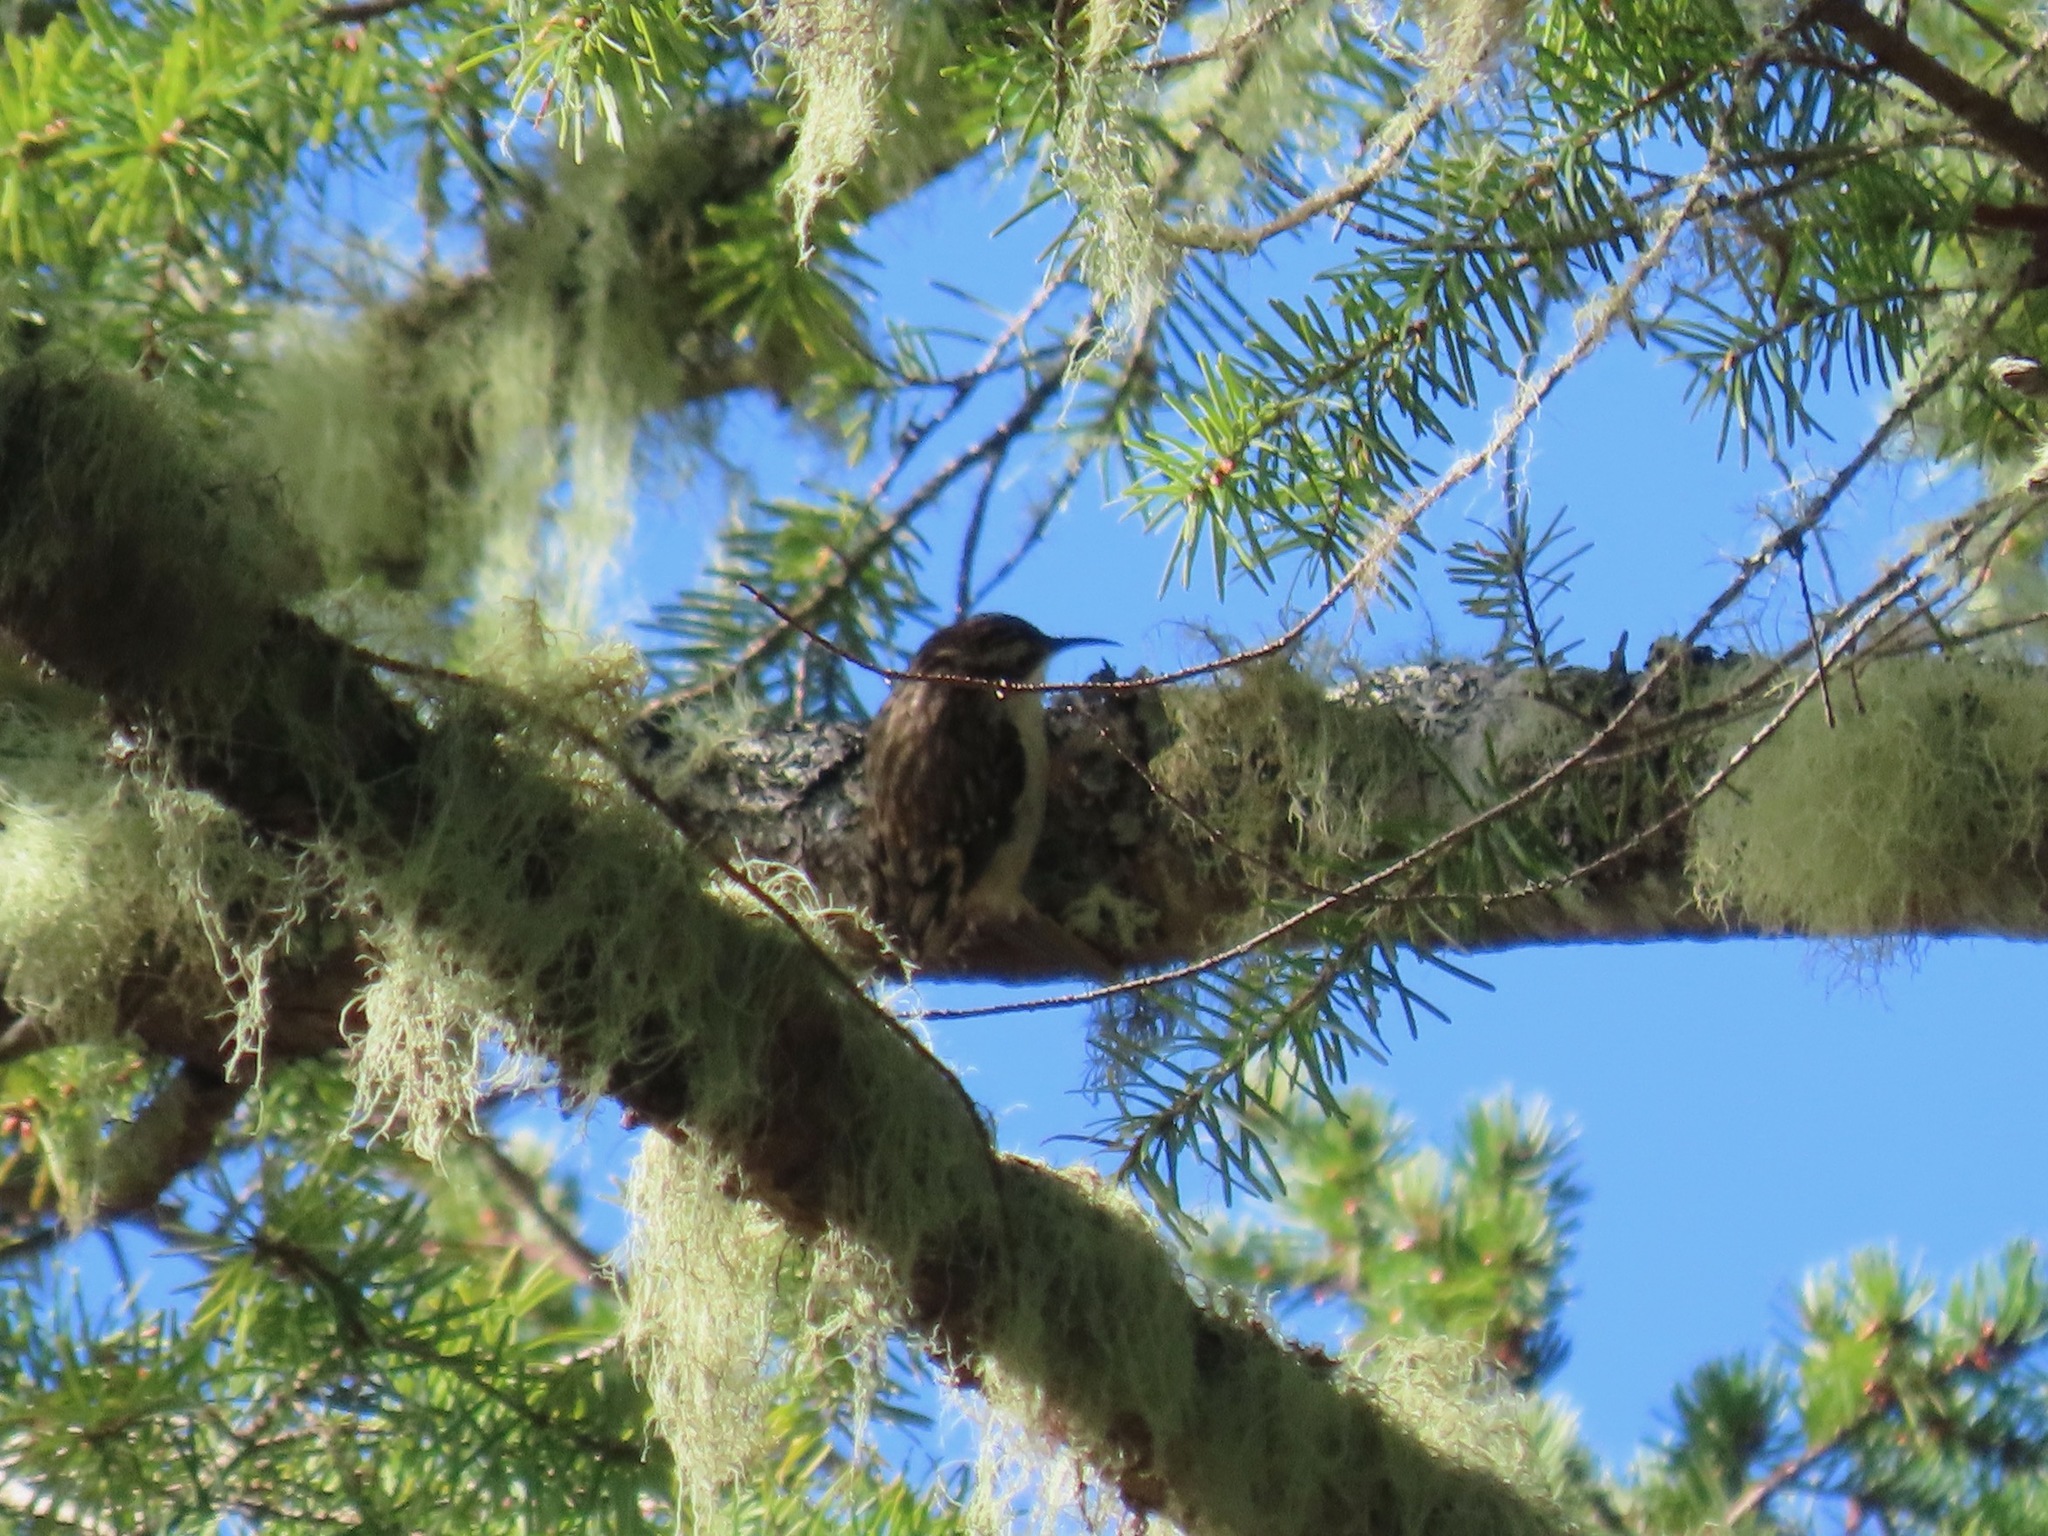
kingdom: Animalia
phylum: Chordata
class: Aves
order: Passeriformes
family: Certhiidae
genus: Certhia
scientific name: Certhia americana
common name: Brown creeper
